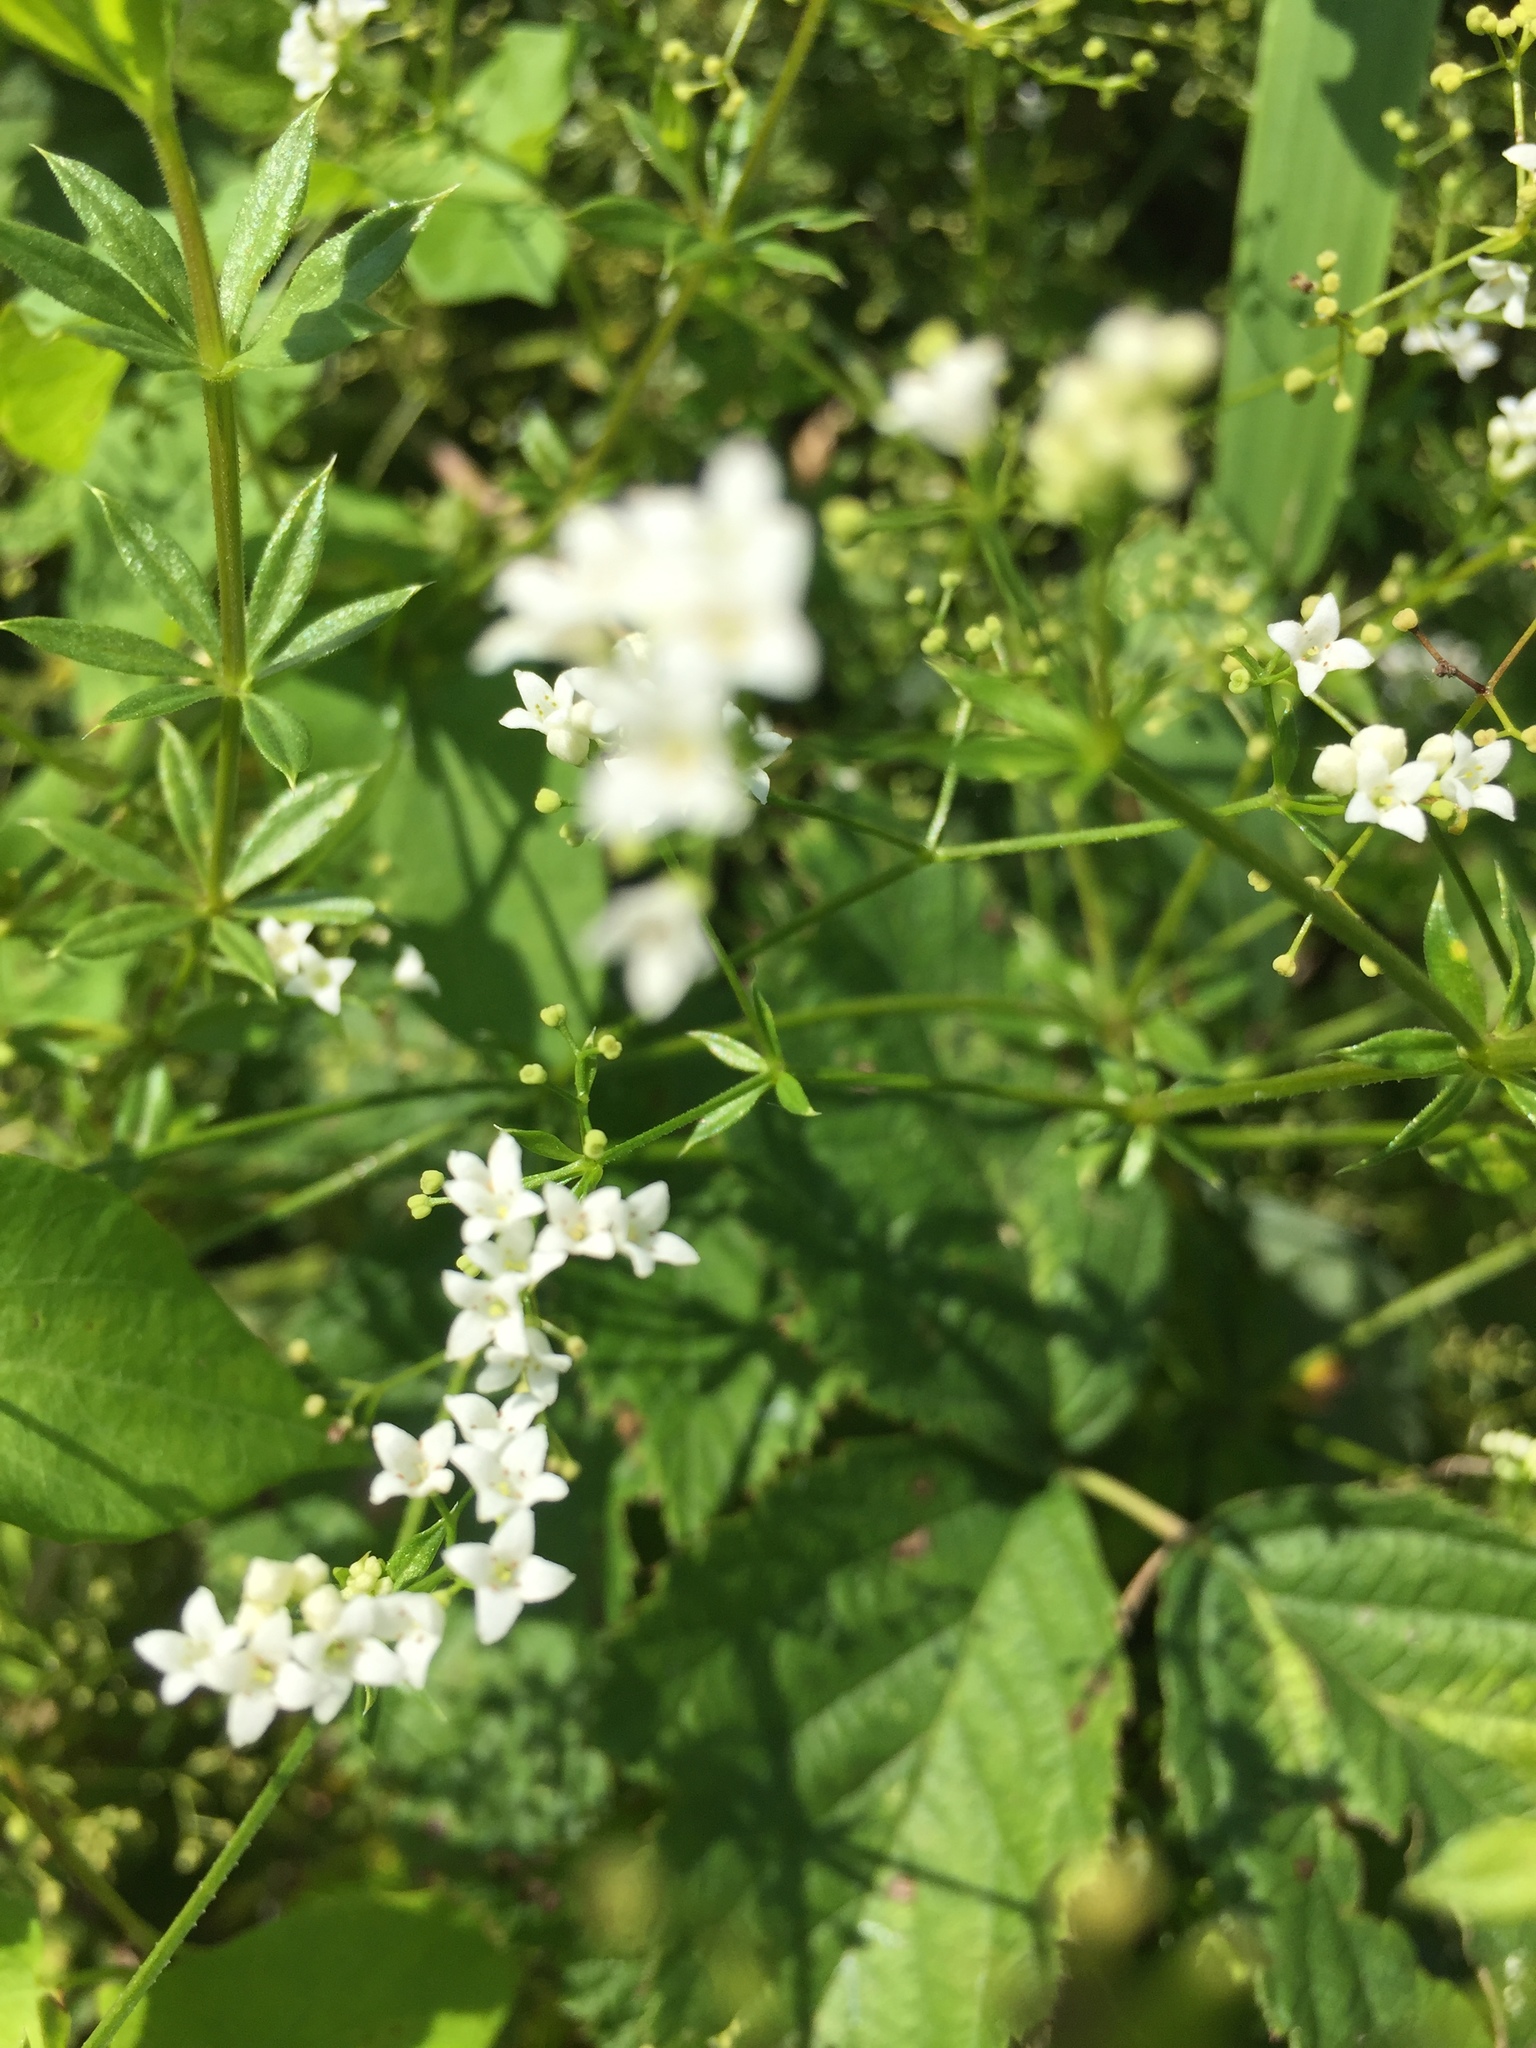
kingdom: Plantae
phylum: Tracheophyta
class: Magnoliopsida
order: Gentianales
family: Rubiaceae
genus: Galium
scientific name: Galium rivale
